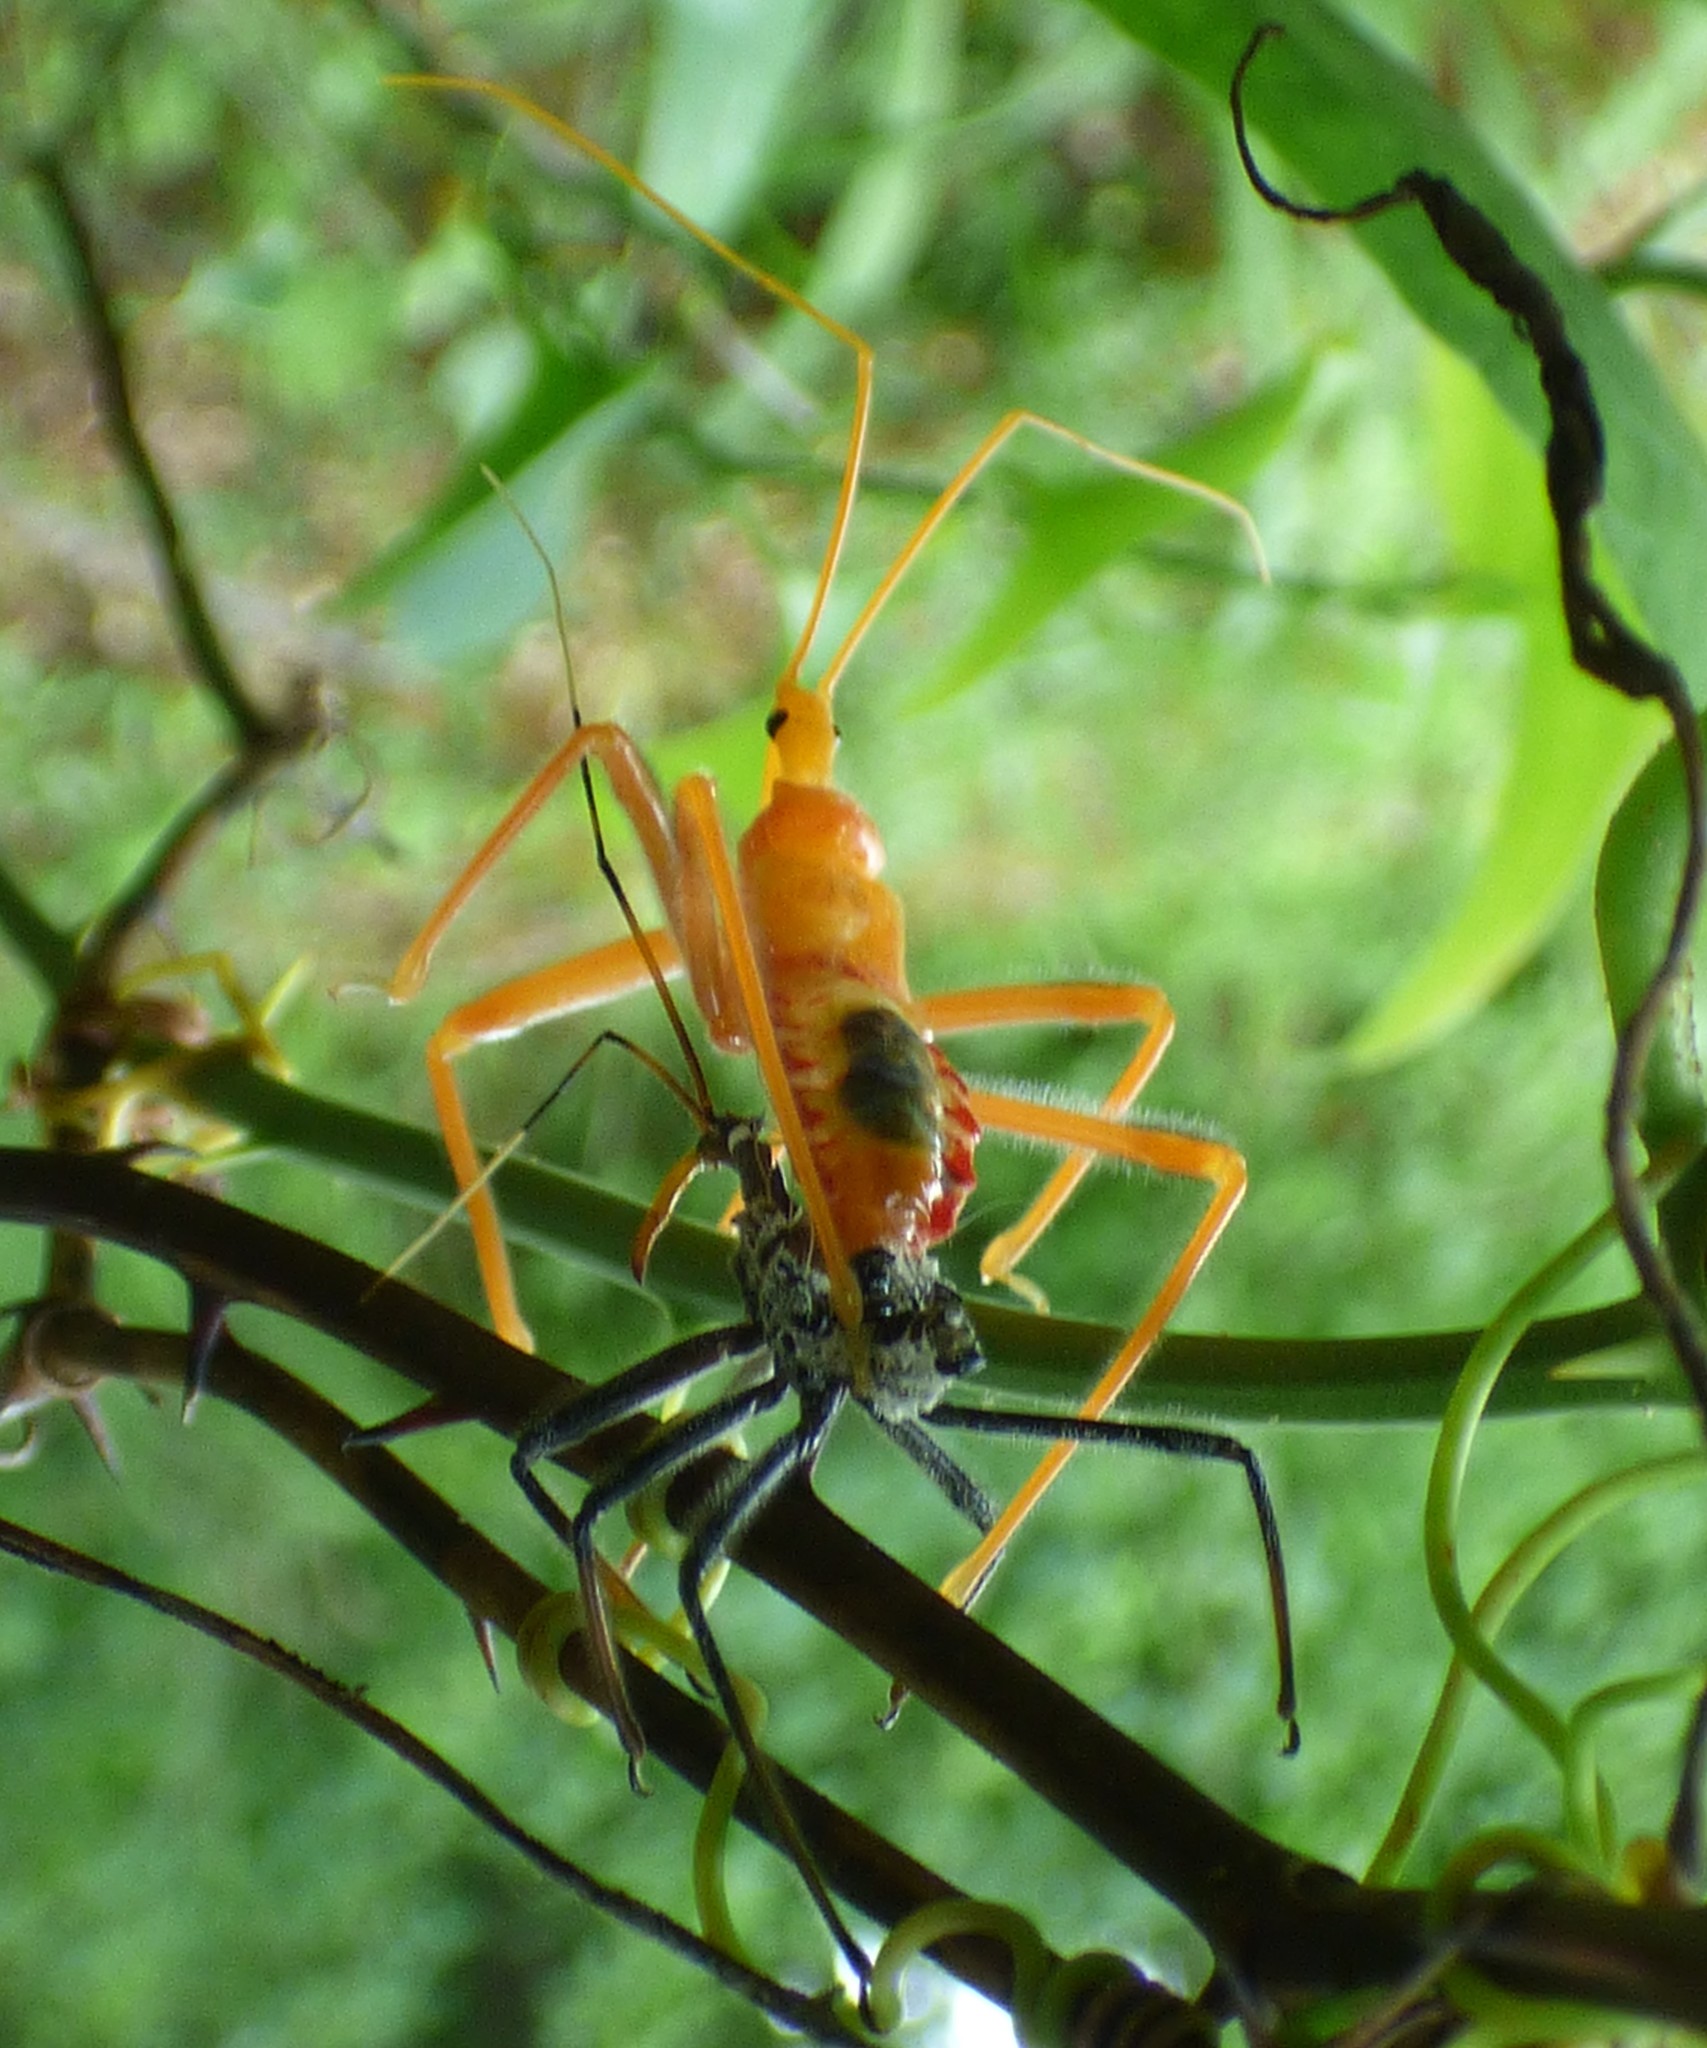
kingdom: Animalia
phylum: Arthropoda
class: Insecta
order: Hemiptera
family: Reduviidae
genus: Arilus
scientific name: Arilus cristatus
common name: North american wheel bug
